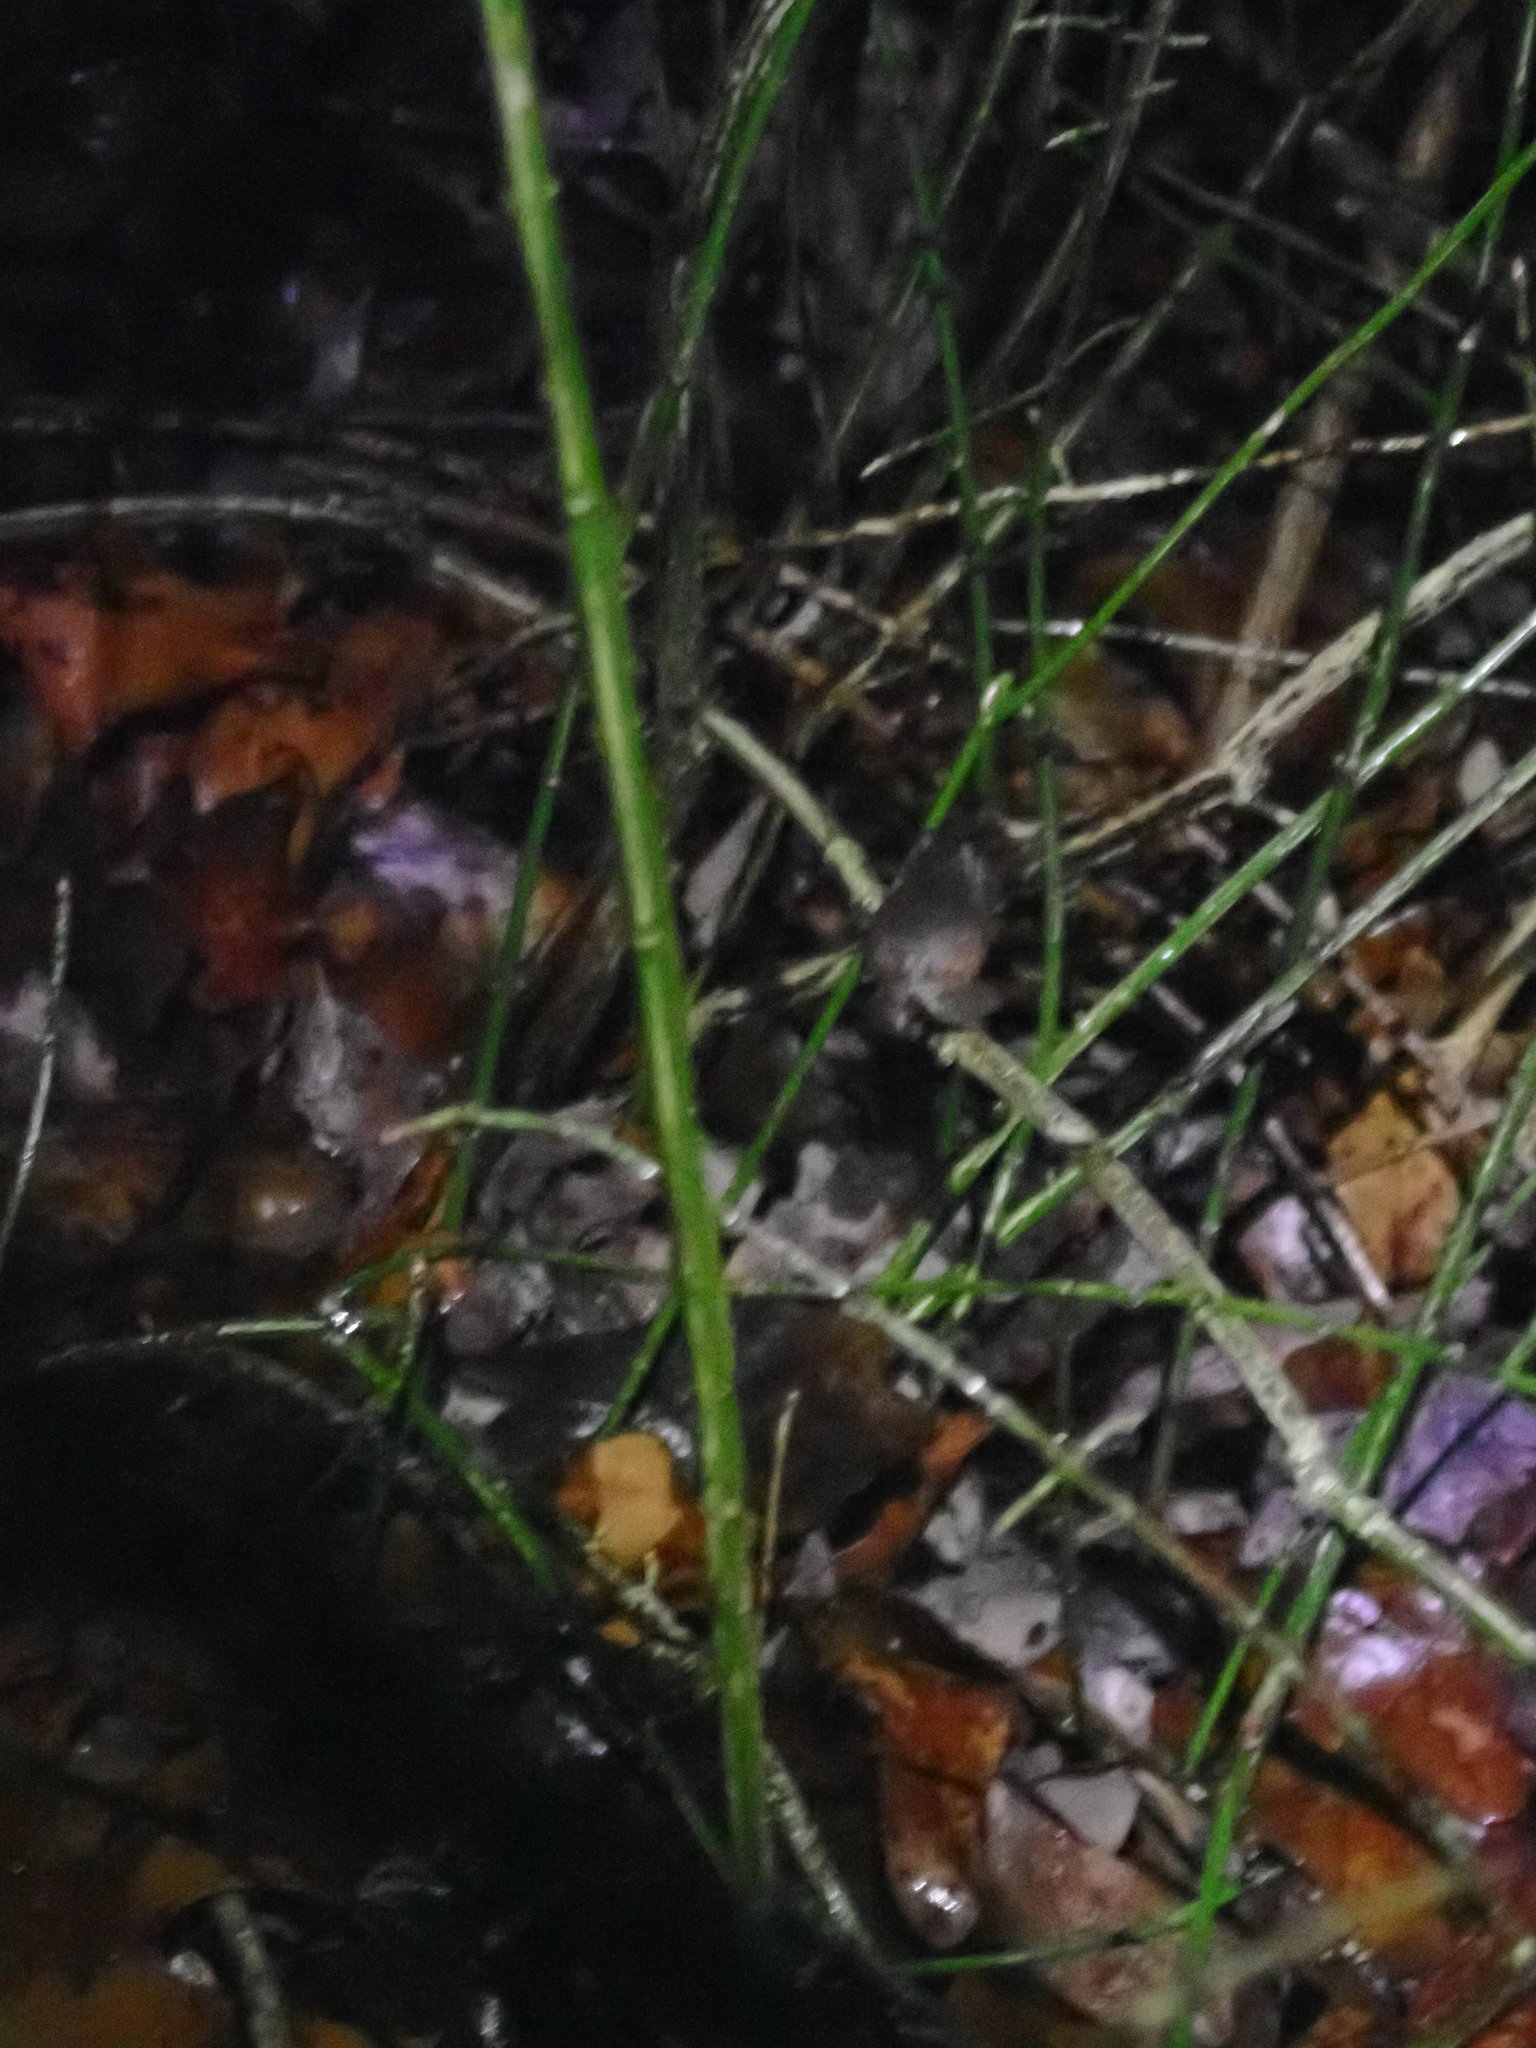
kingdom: Animalia
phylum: Chordata
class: Amphibia
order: Anura
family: Hylidae
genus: Pseudacris
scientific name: Pseudacris crucifer
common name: Spring peeper
